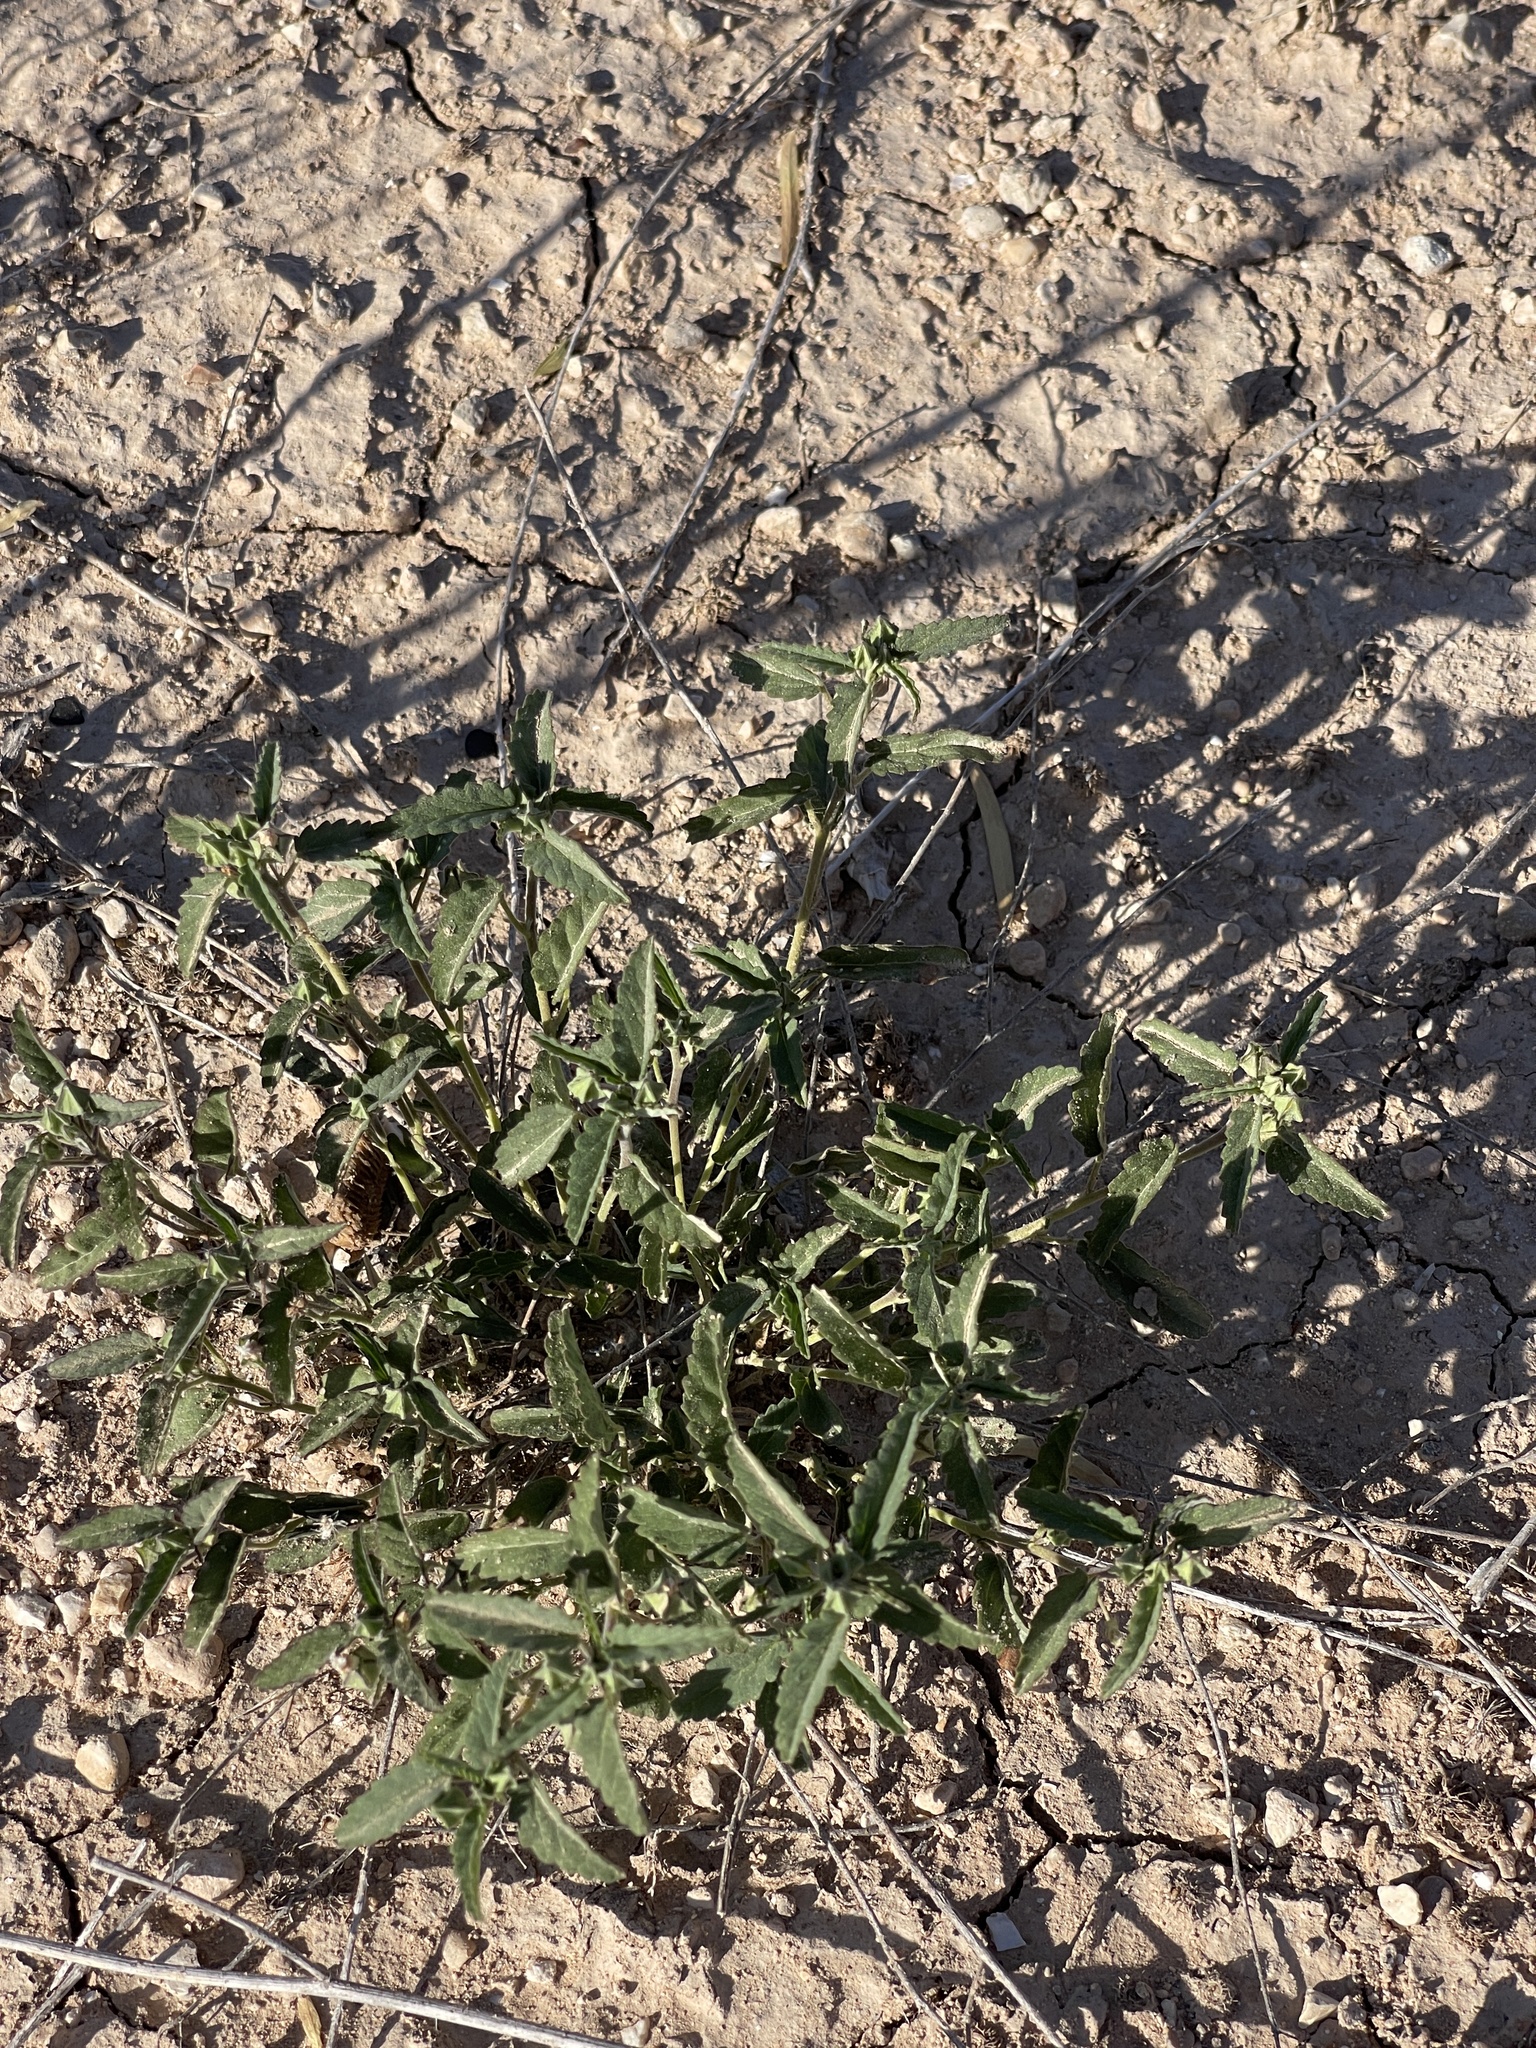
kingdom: Plantae
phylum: Tracheophyta
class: Magnoliopsida
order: Malvales
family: Malvaceae
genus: Rhynchosida
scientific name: Rhynchosida physocalyx
